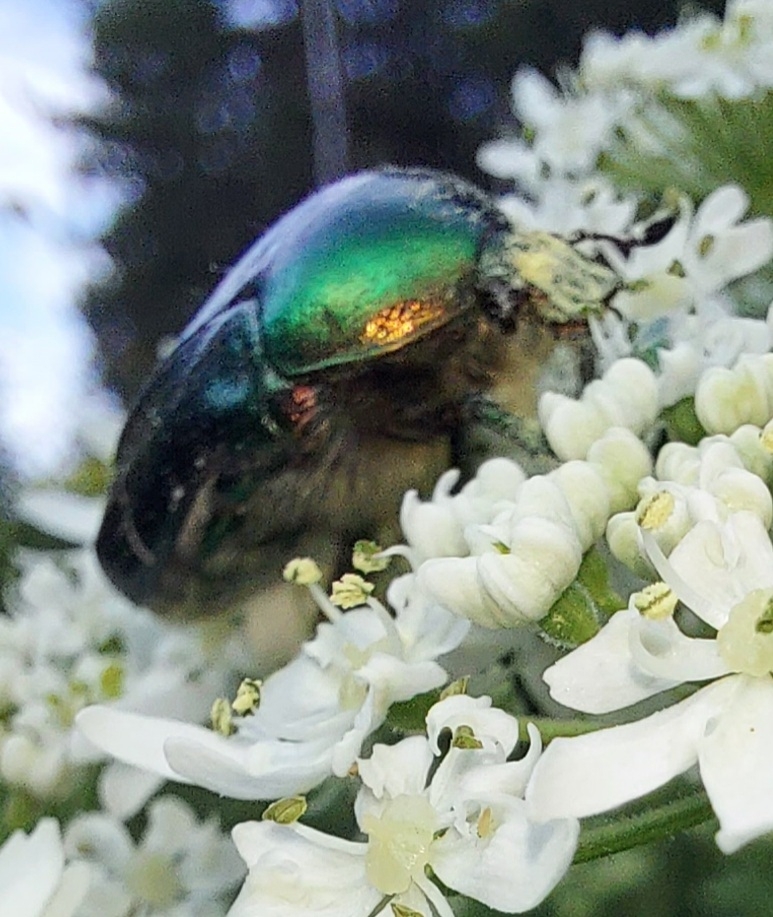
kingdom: Animalia
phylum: Arthropoda
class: Insecta
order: Coleoptera
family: Scarabaeidae
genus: Cetonia
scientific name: Cetonia aurata
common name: Rose chafer
